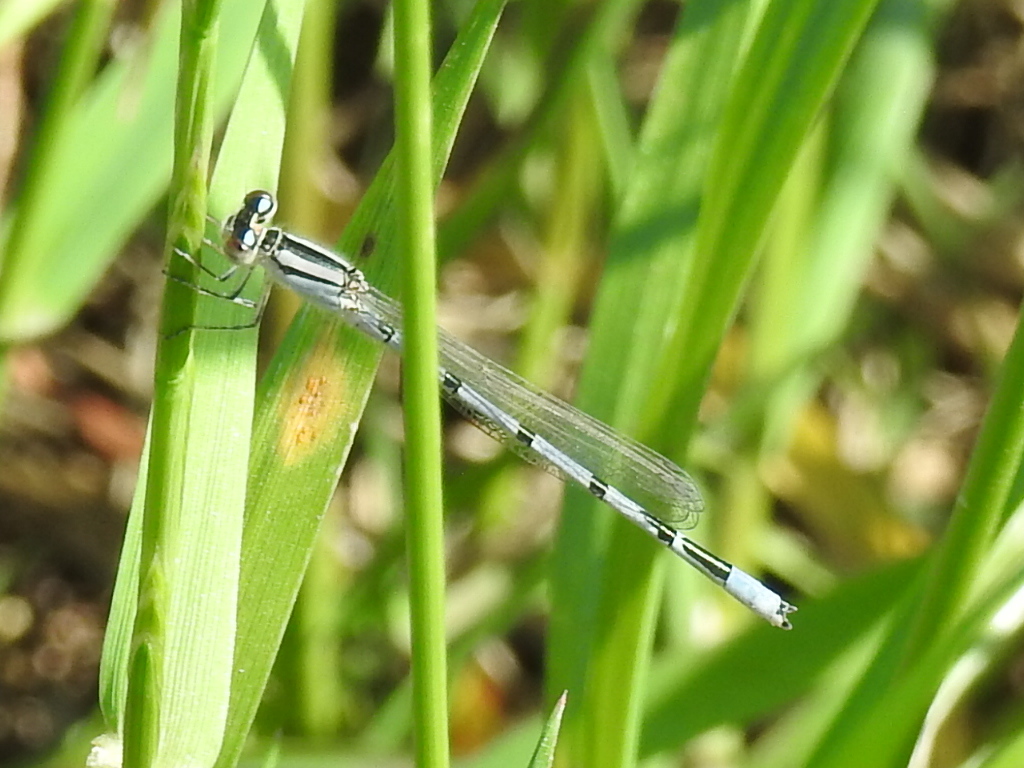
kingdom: Animalia
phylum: Arthropoda
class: Insecta
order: Odonata
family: Coenagrionidae
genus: Enallagma
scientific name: Enallagma civile
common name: Damselfly
